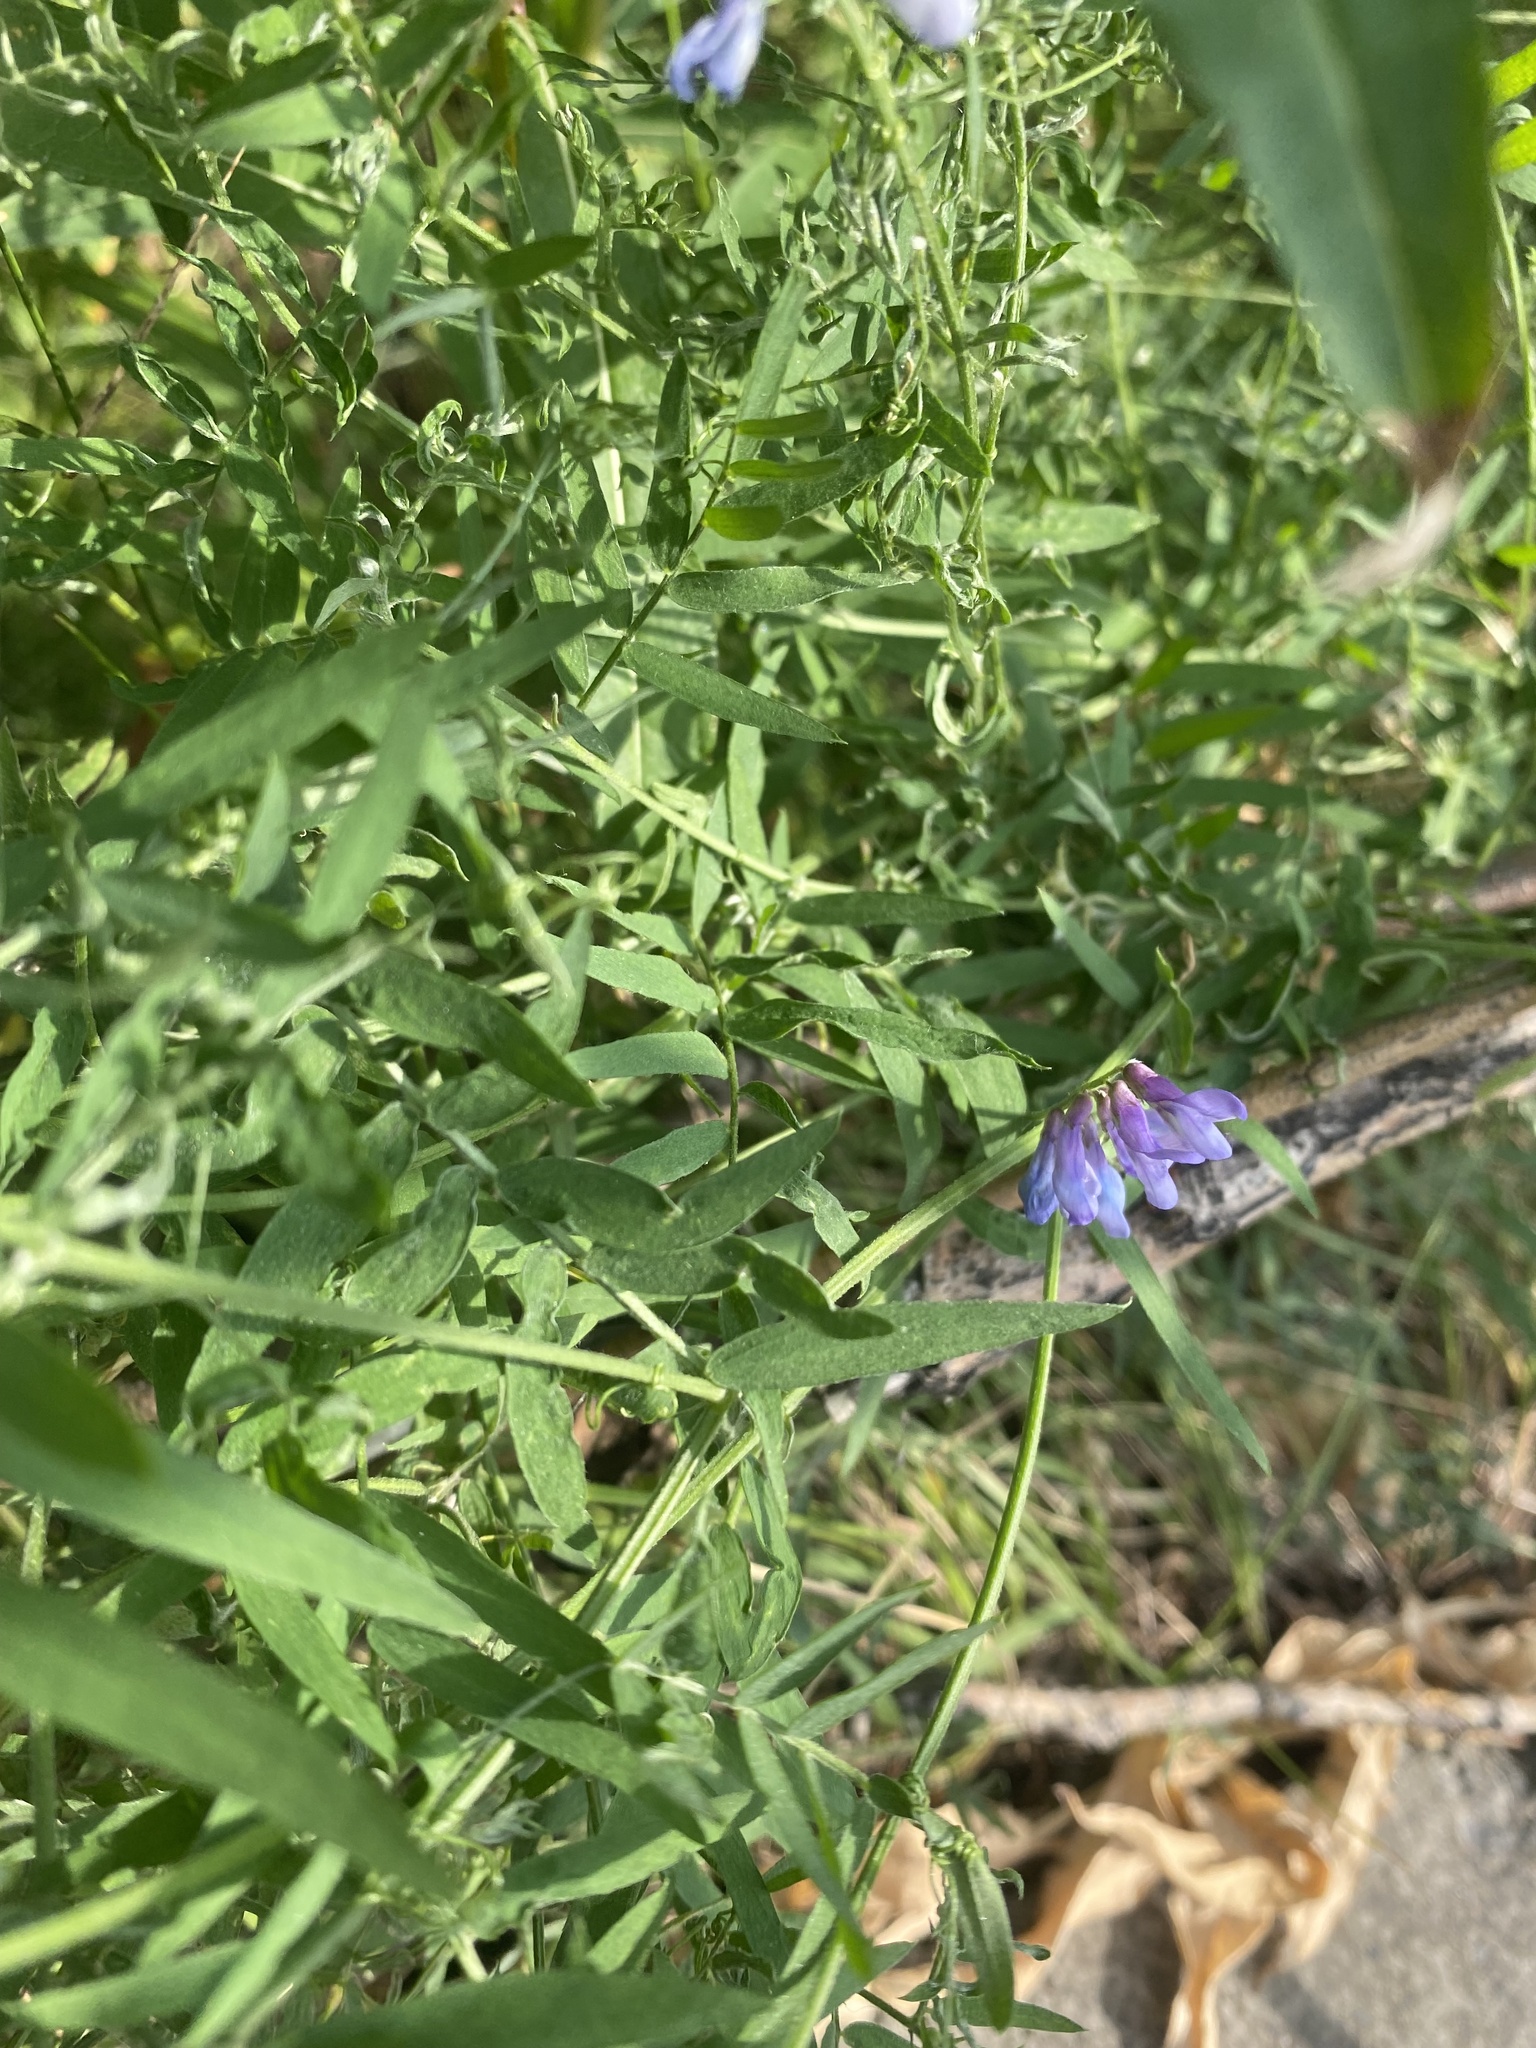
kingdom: Plantae
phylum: Tracheophyta
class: Magnoliopsida
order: Fabales
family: Fabaceae
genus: Vicia
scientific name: Vicia cracca
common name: Bird vetch
